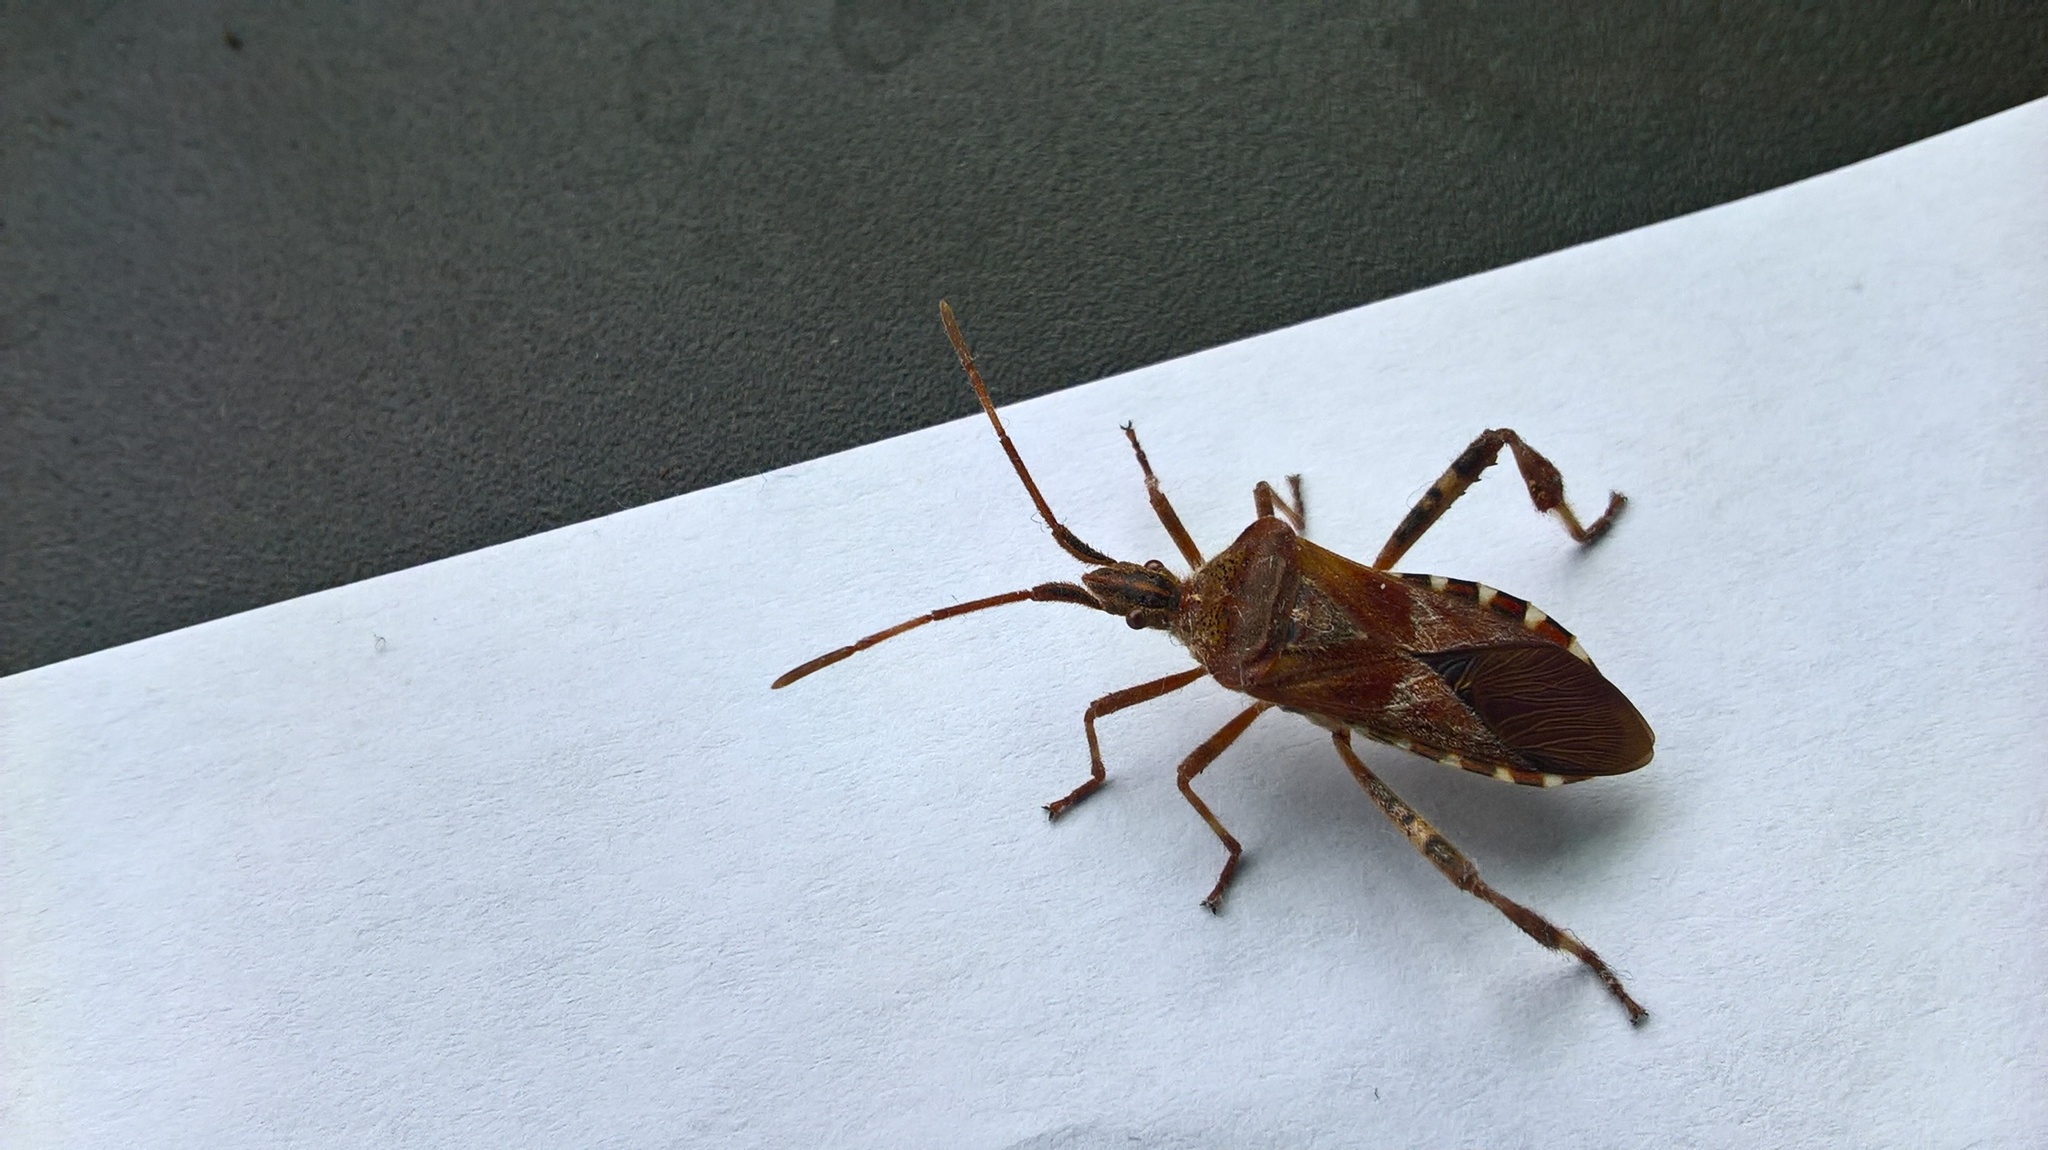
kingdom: Animalia
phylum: Arthropoda
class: Insecta
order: Hemiptera
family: Coreidae
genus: Leptoglossus
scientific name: Leptoglossus occidentalis
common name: Western conifer-seed bug
